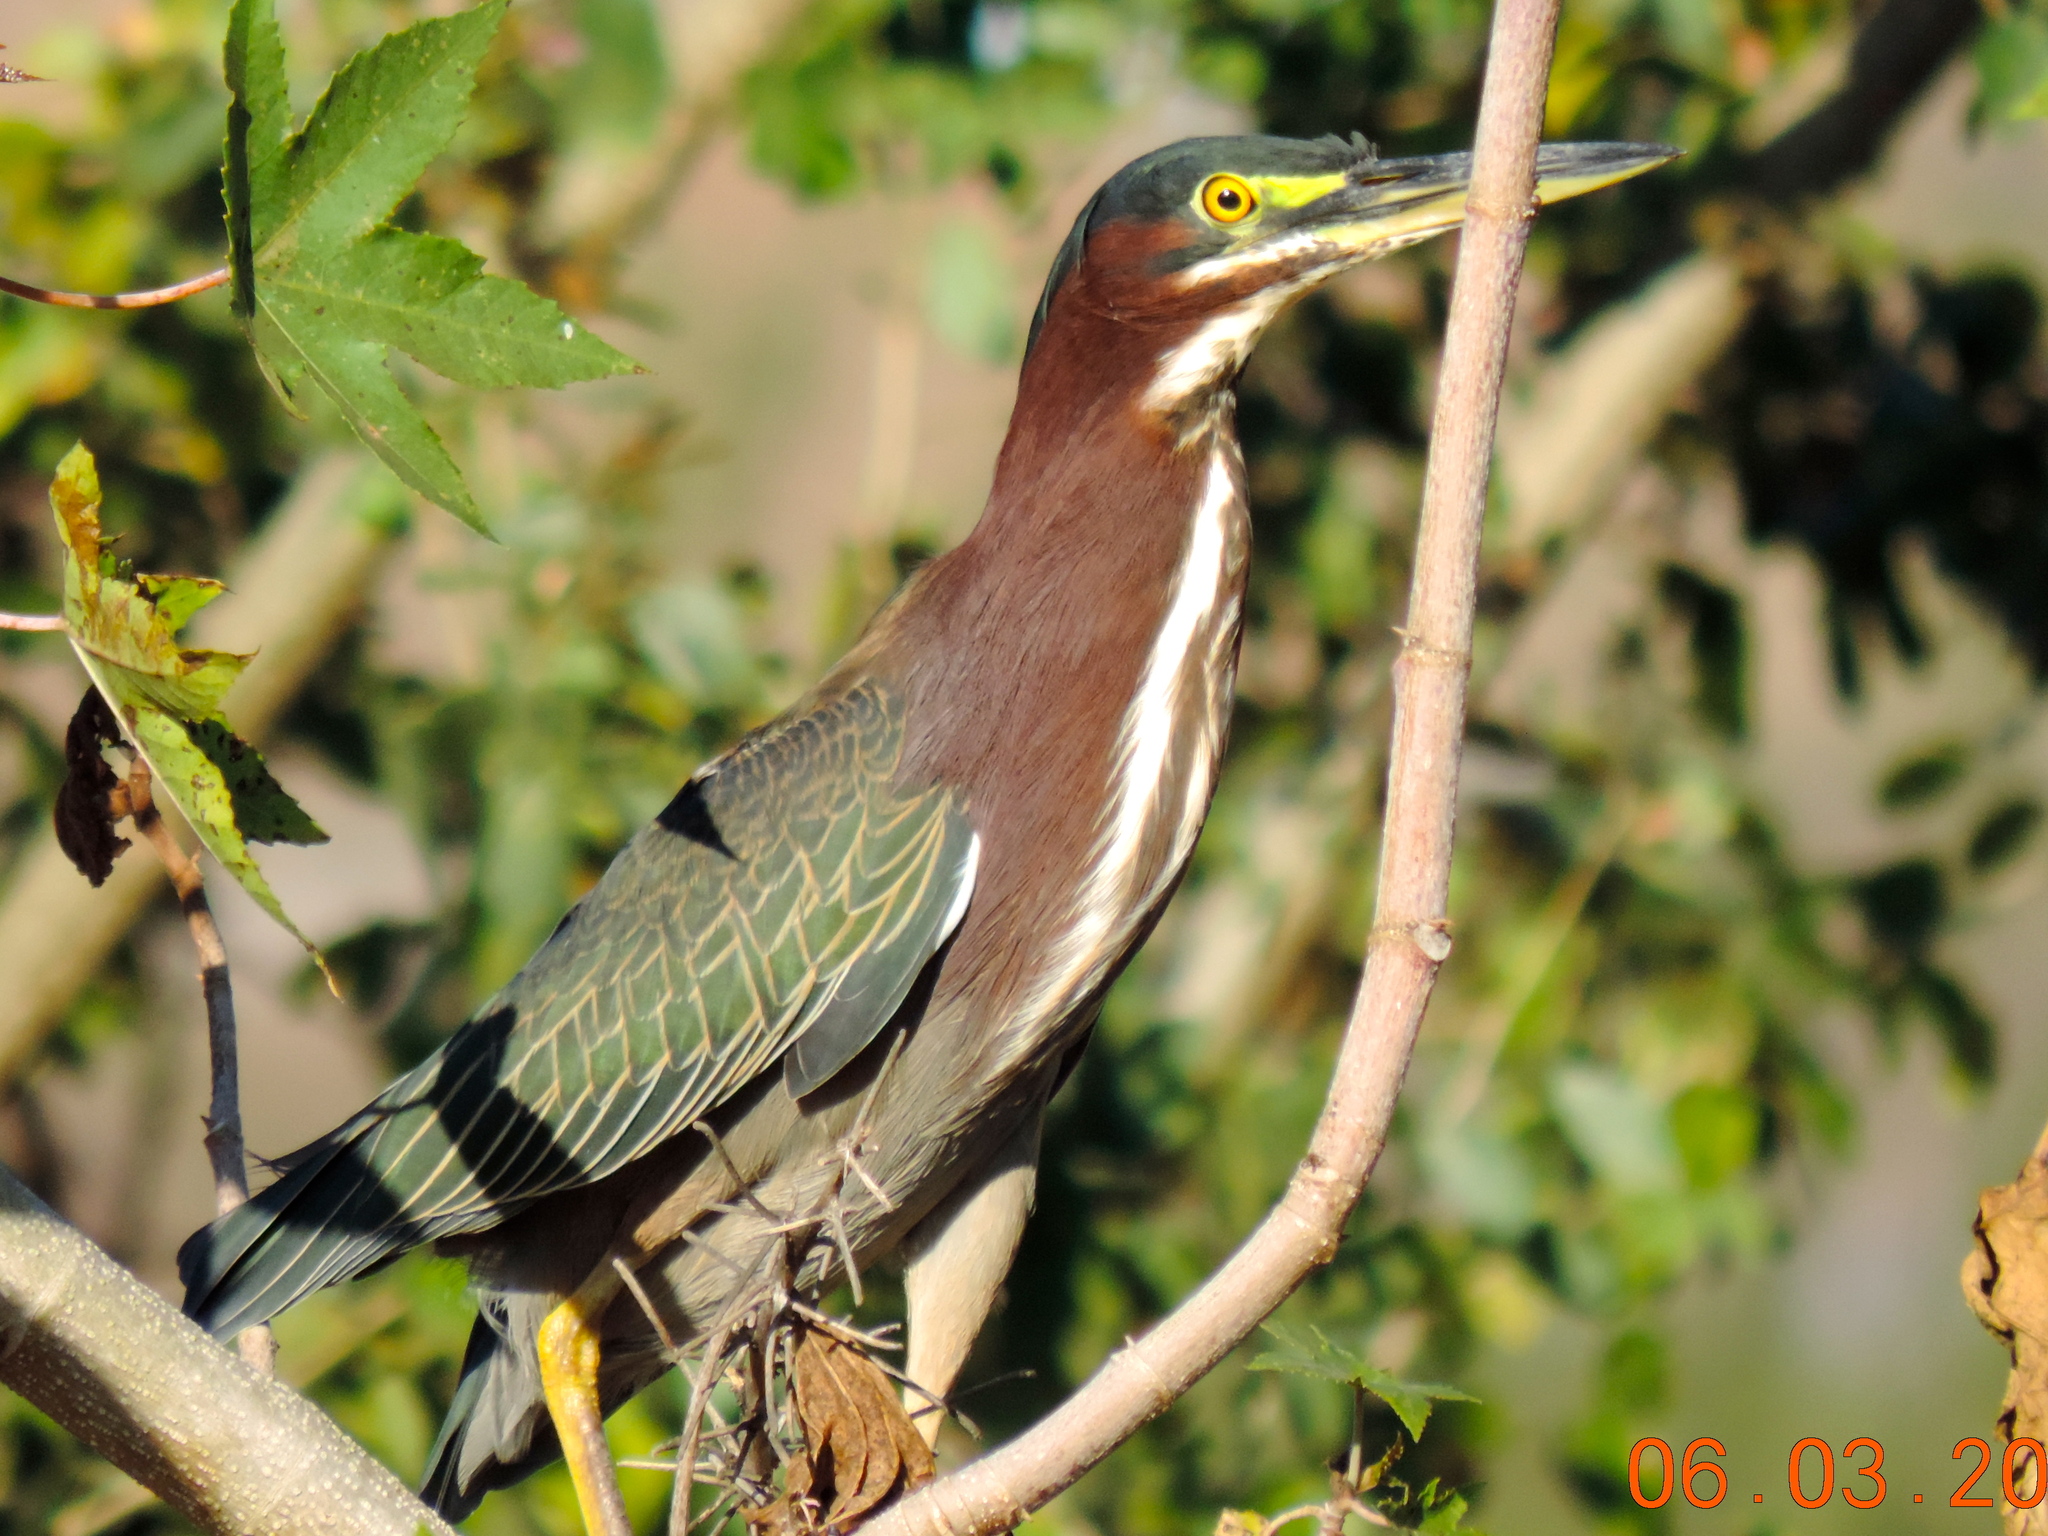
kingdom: Animalia
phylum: Chordata
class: Aves
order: Pelecaniformes
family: Ardeidae
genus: Butorides
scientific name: Butorides virescens
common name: Green heron
